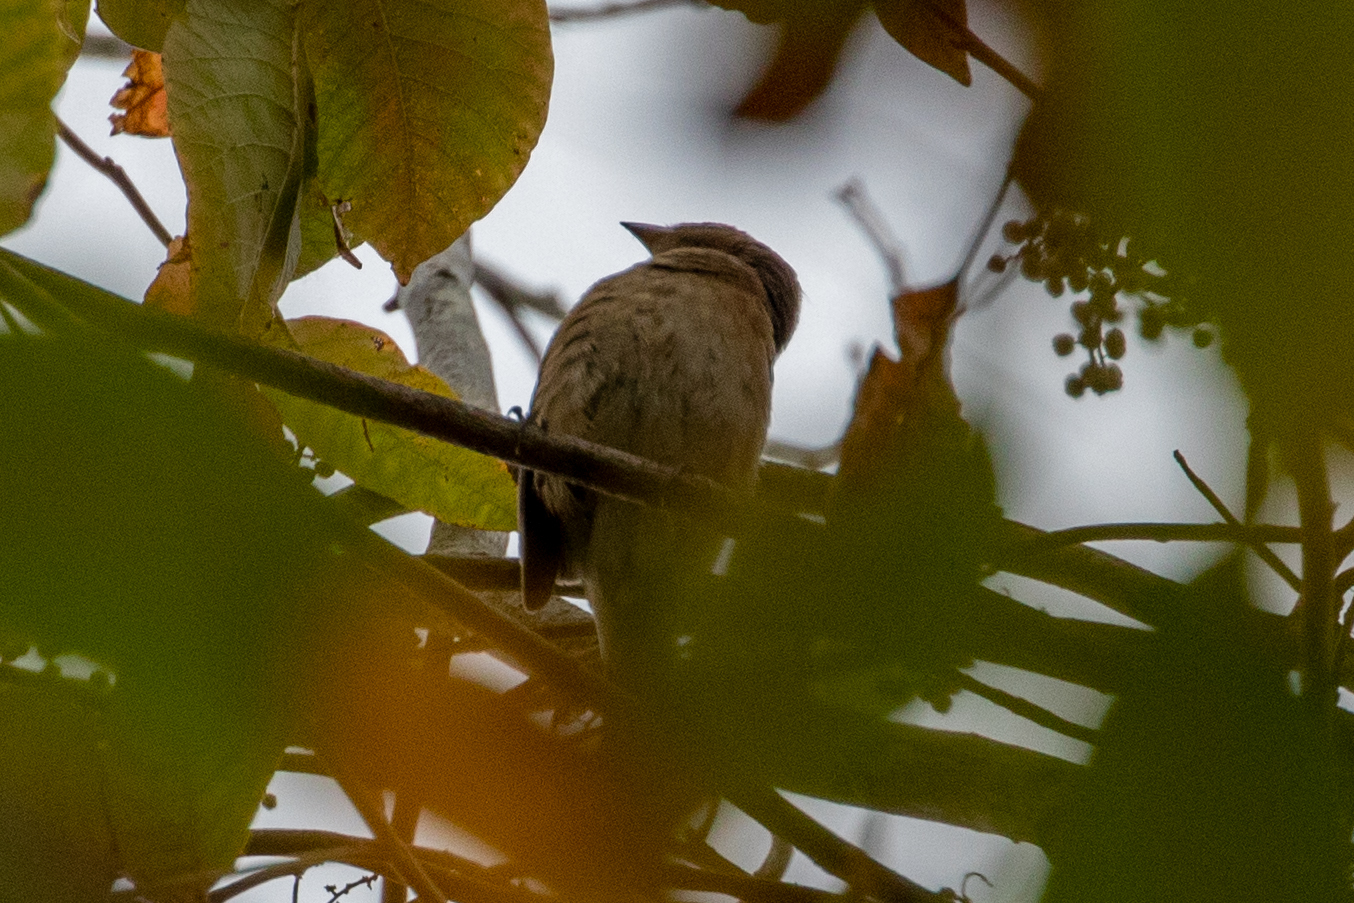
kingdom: Animalia
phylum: Chordata
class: Aves
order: Passeriformes
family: Cardinalidae
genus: Passerina
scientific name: Passerina cyanea
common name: Indigo bunting
